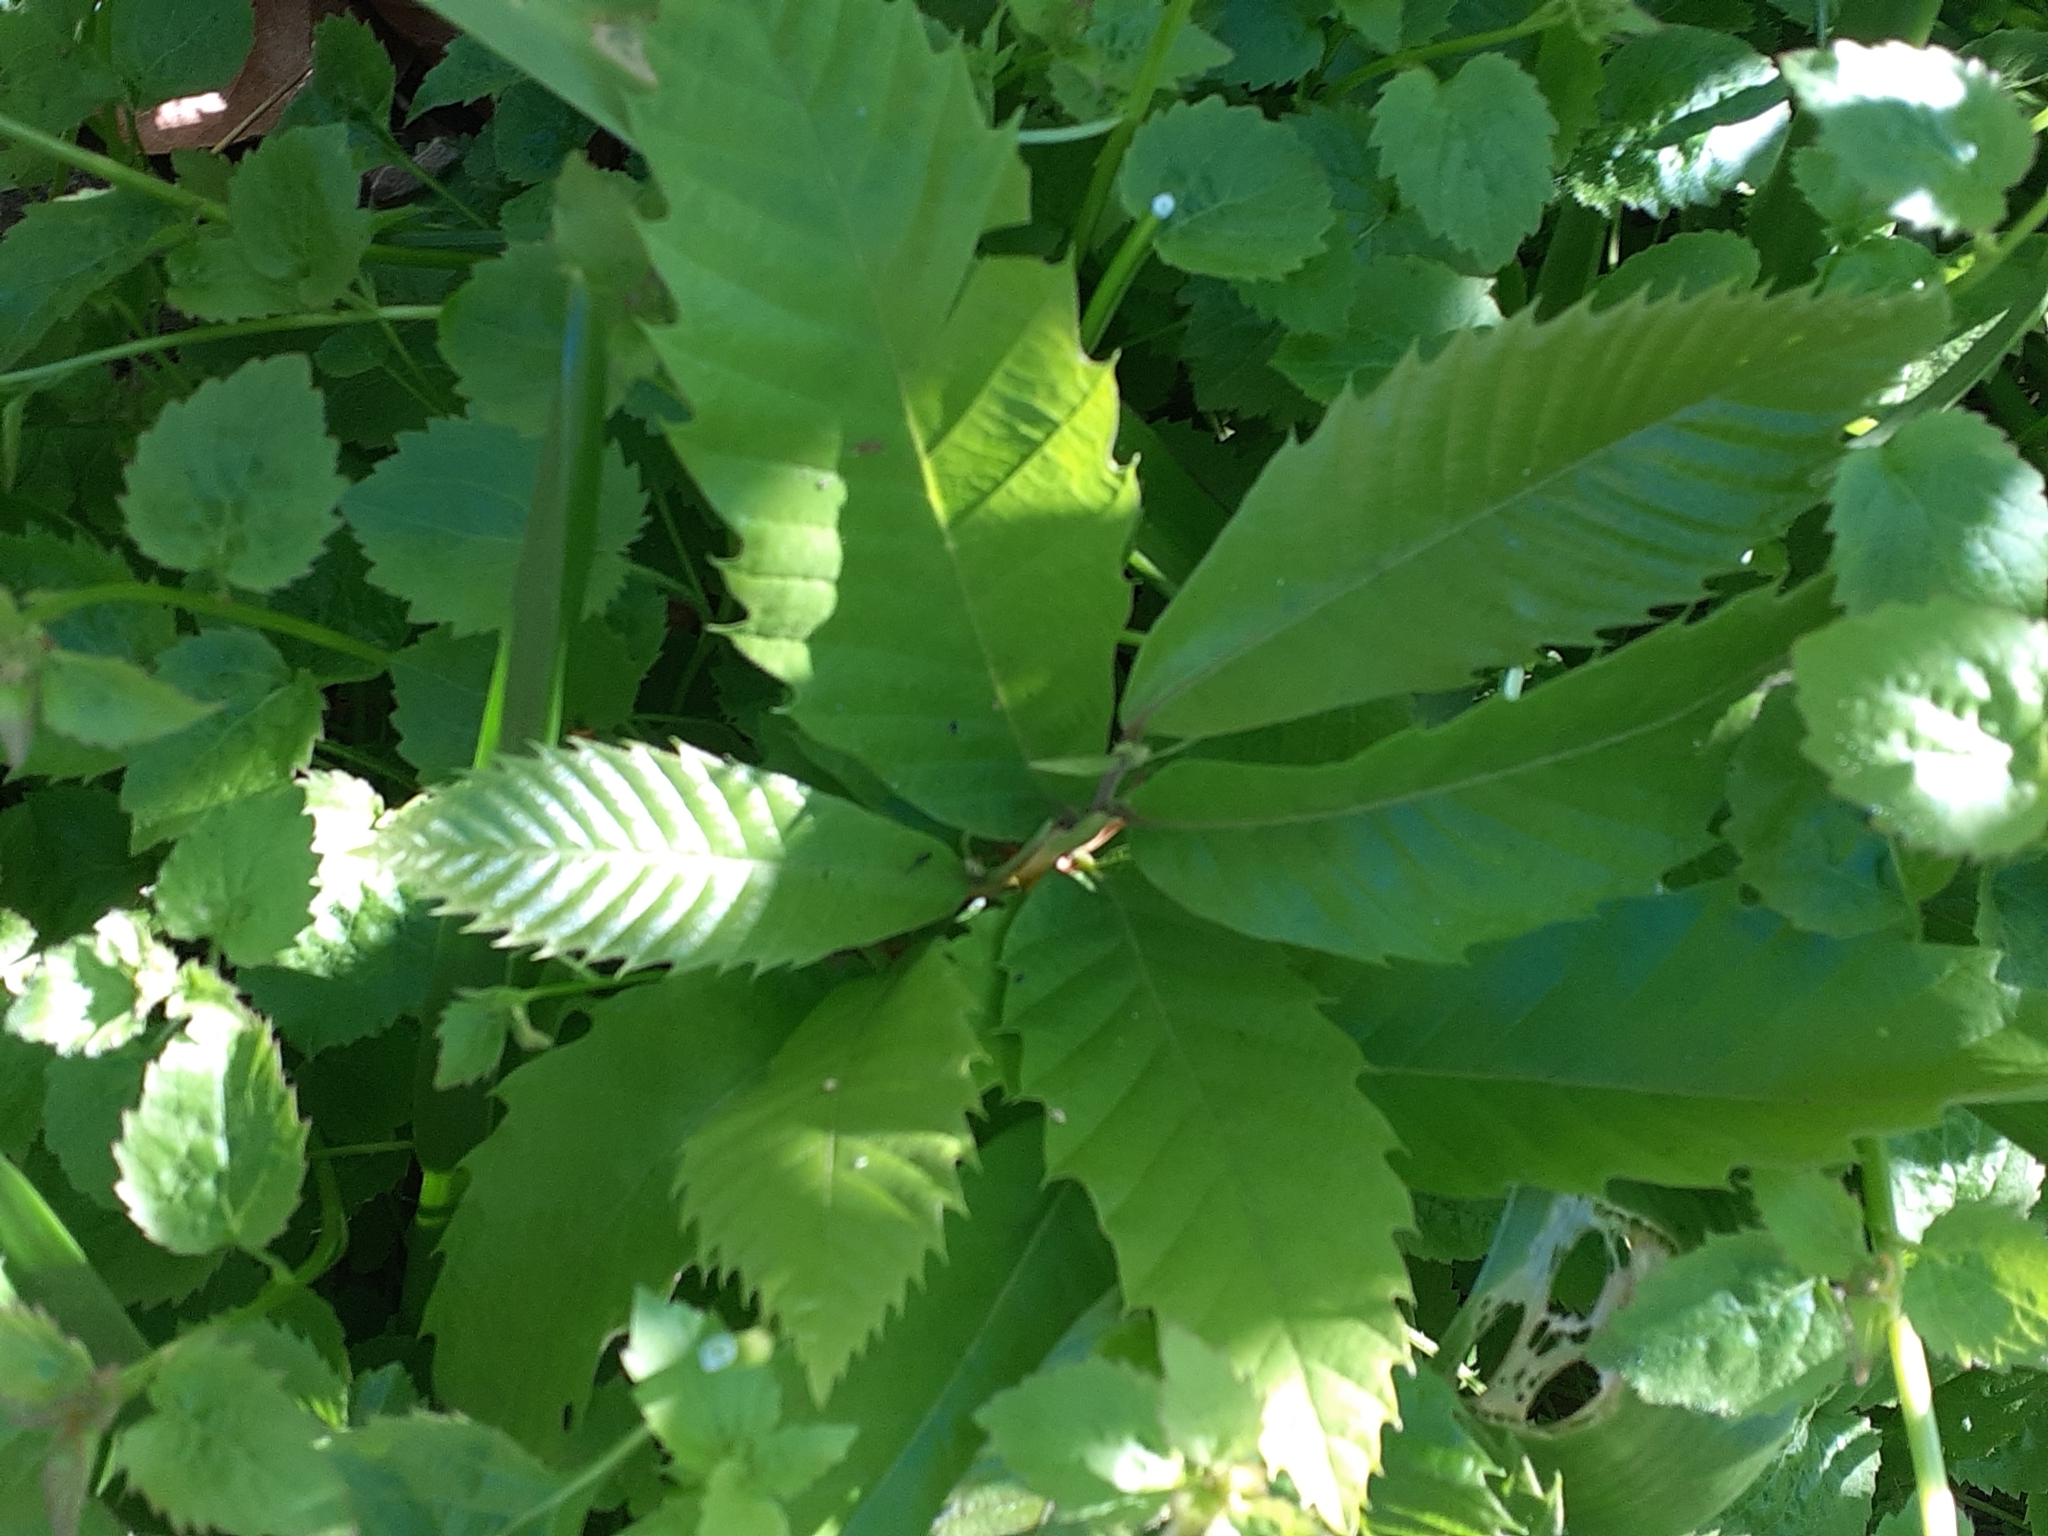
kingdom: Plantae
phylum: Tracheophyta
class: Magnoliopsida
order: Fagales
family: Fagaceae
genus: Castanea
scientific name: Castanea sativa
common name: Sweet chestnut
